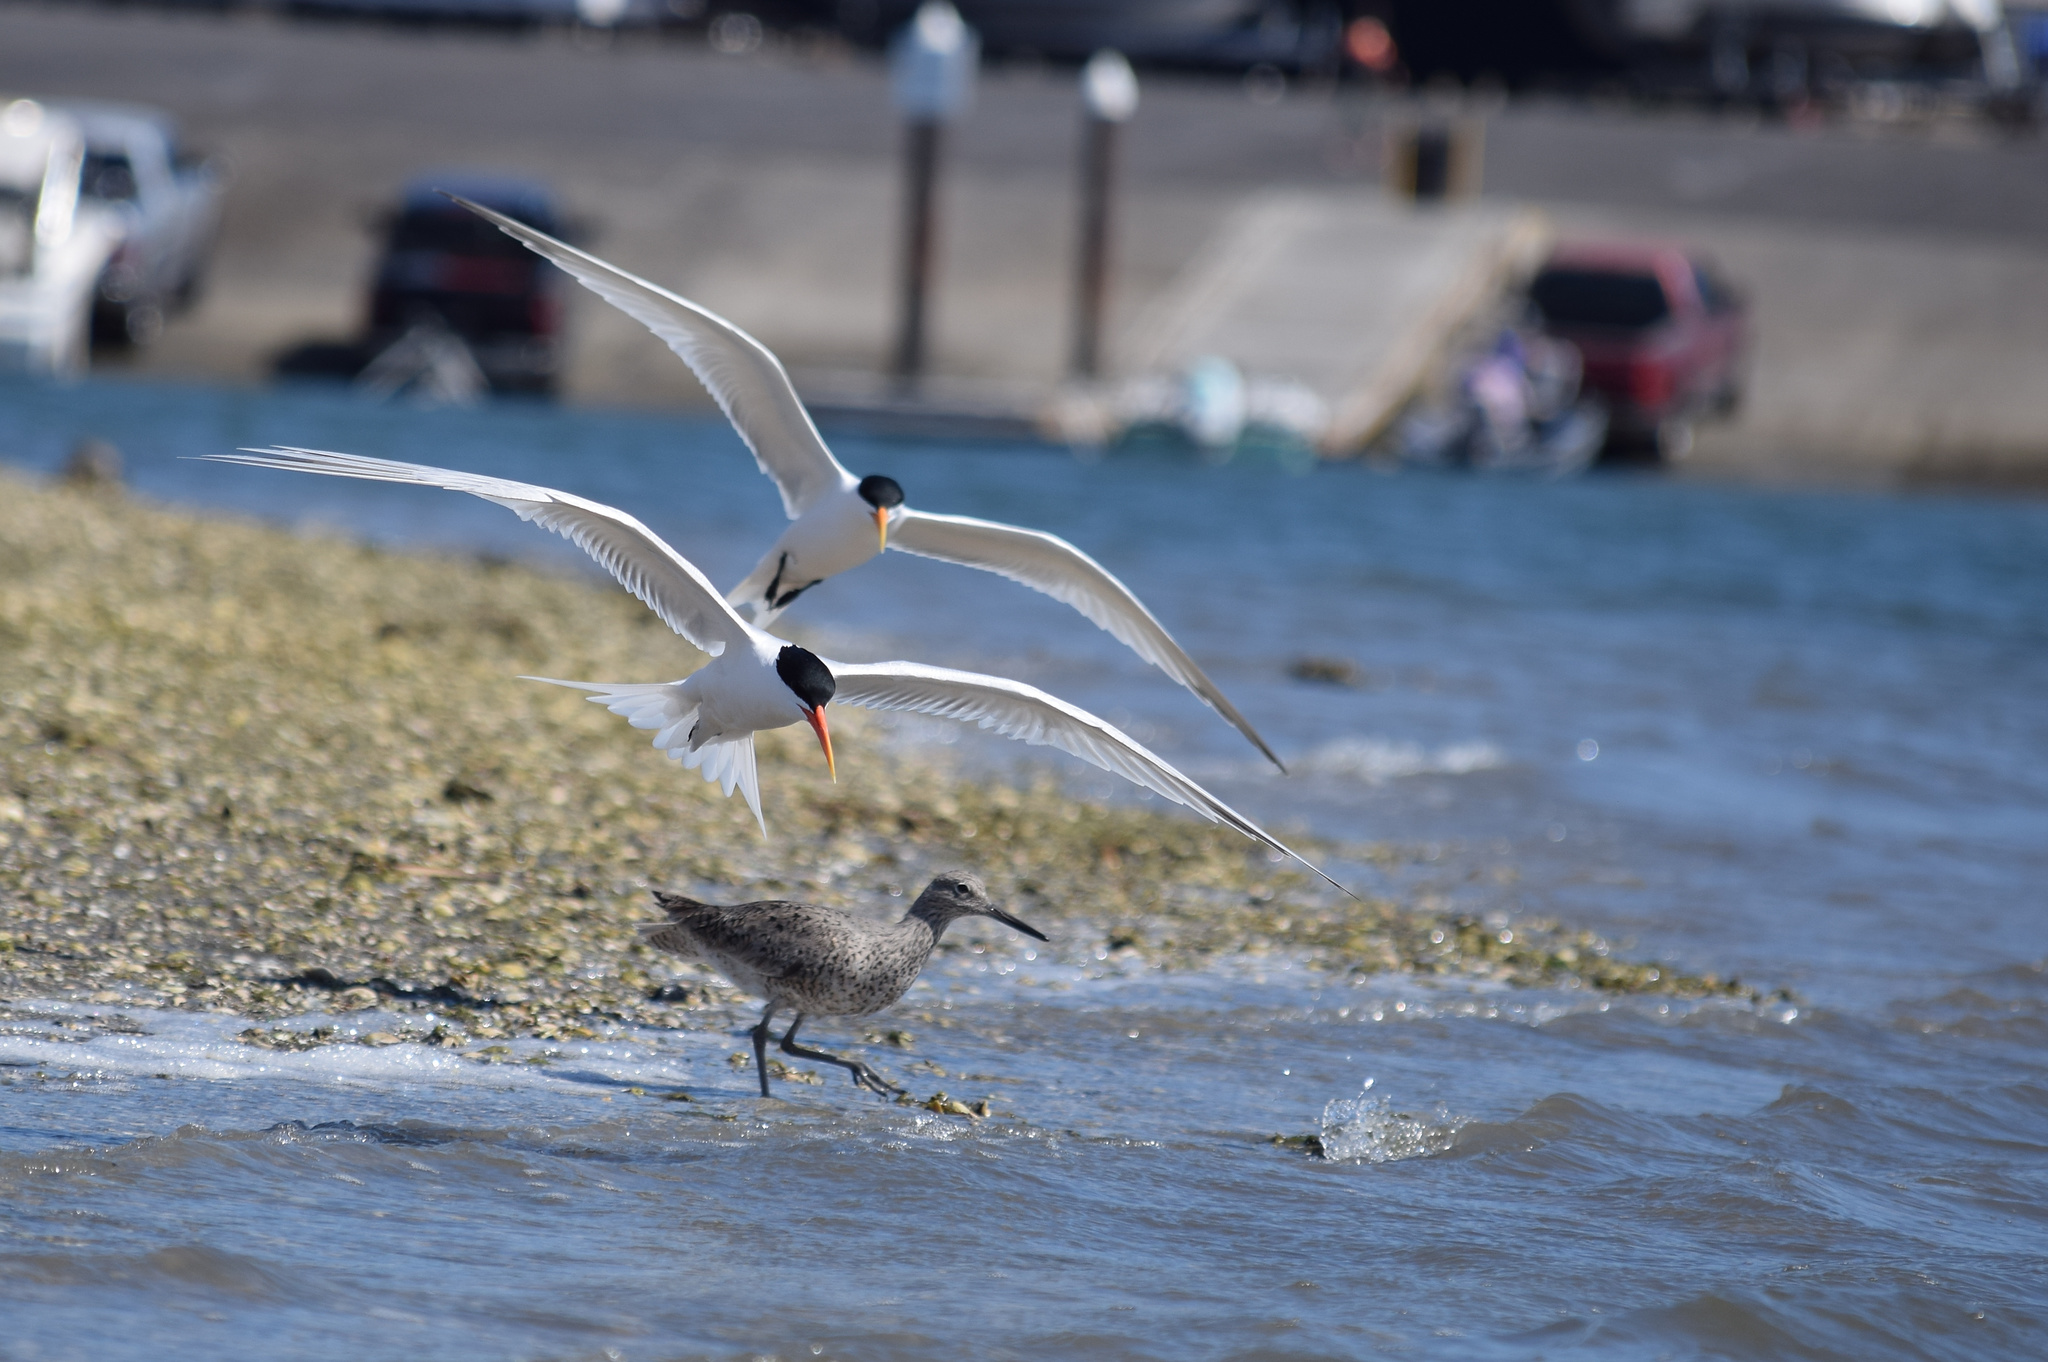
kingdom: Animalia
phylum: Chordata
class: Aves
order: Charadriiformes
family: Laridae
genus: Thalasseus
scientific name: Thalasseus elegans
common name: Elegant tern
